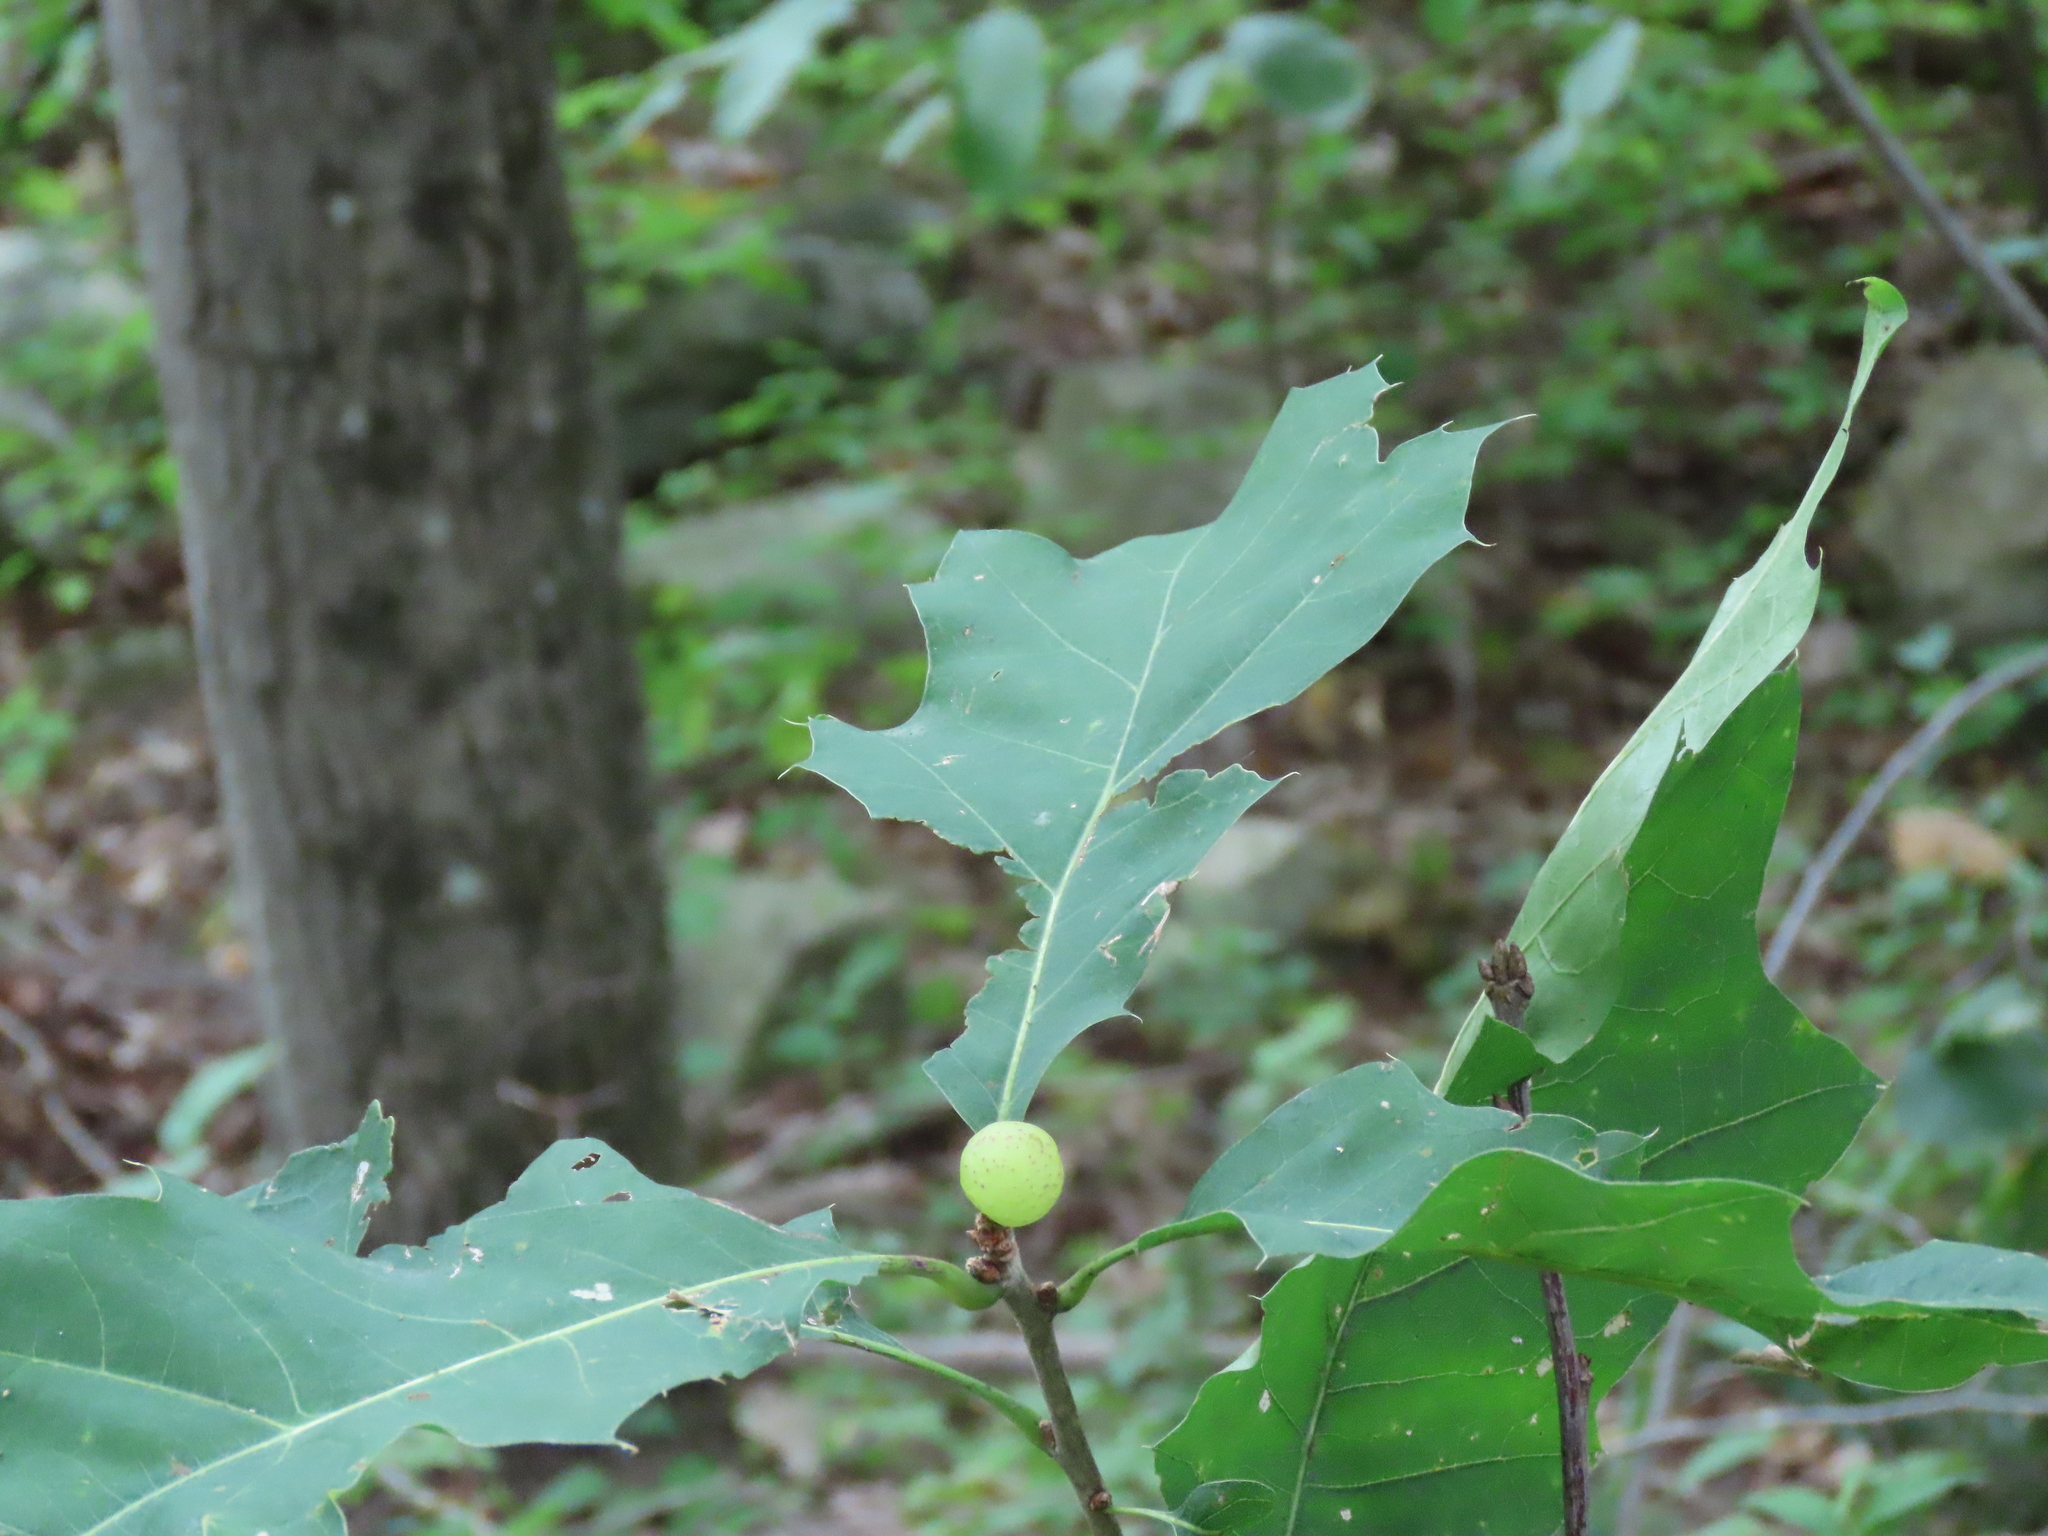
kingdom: Animalia
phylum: Arthropoda
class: Insecta
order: Hymenoptera
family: Cynipidae
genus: Amphibolips
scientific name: Amphibolips
